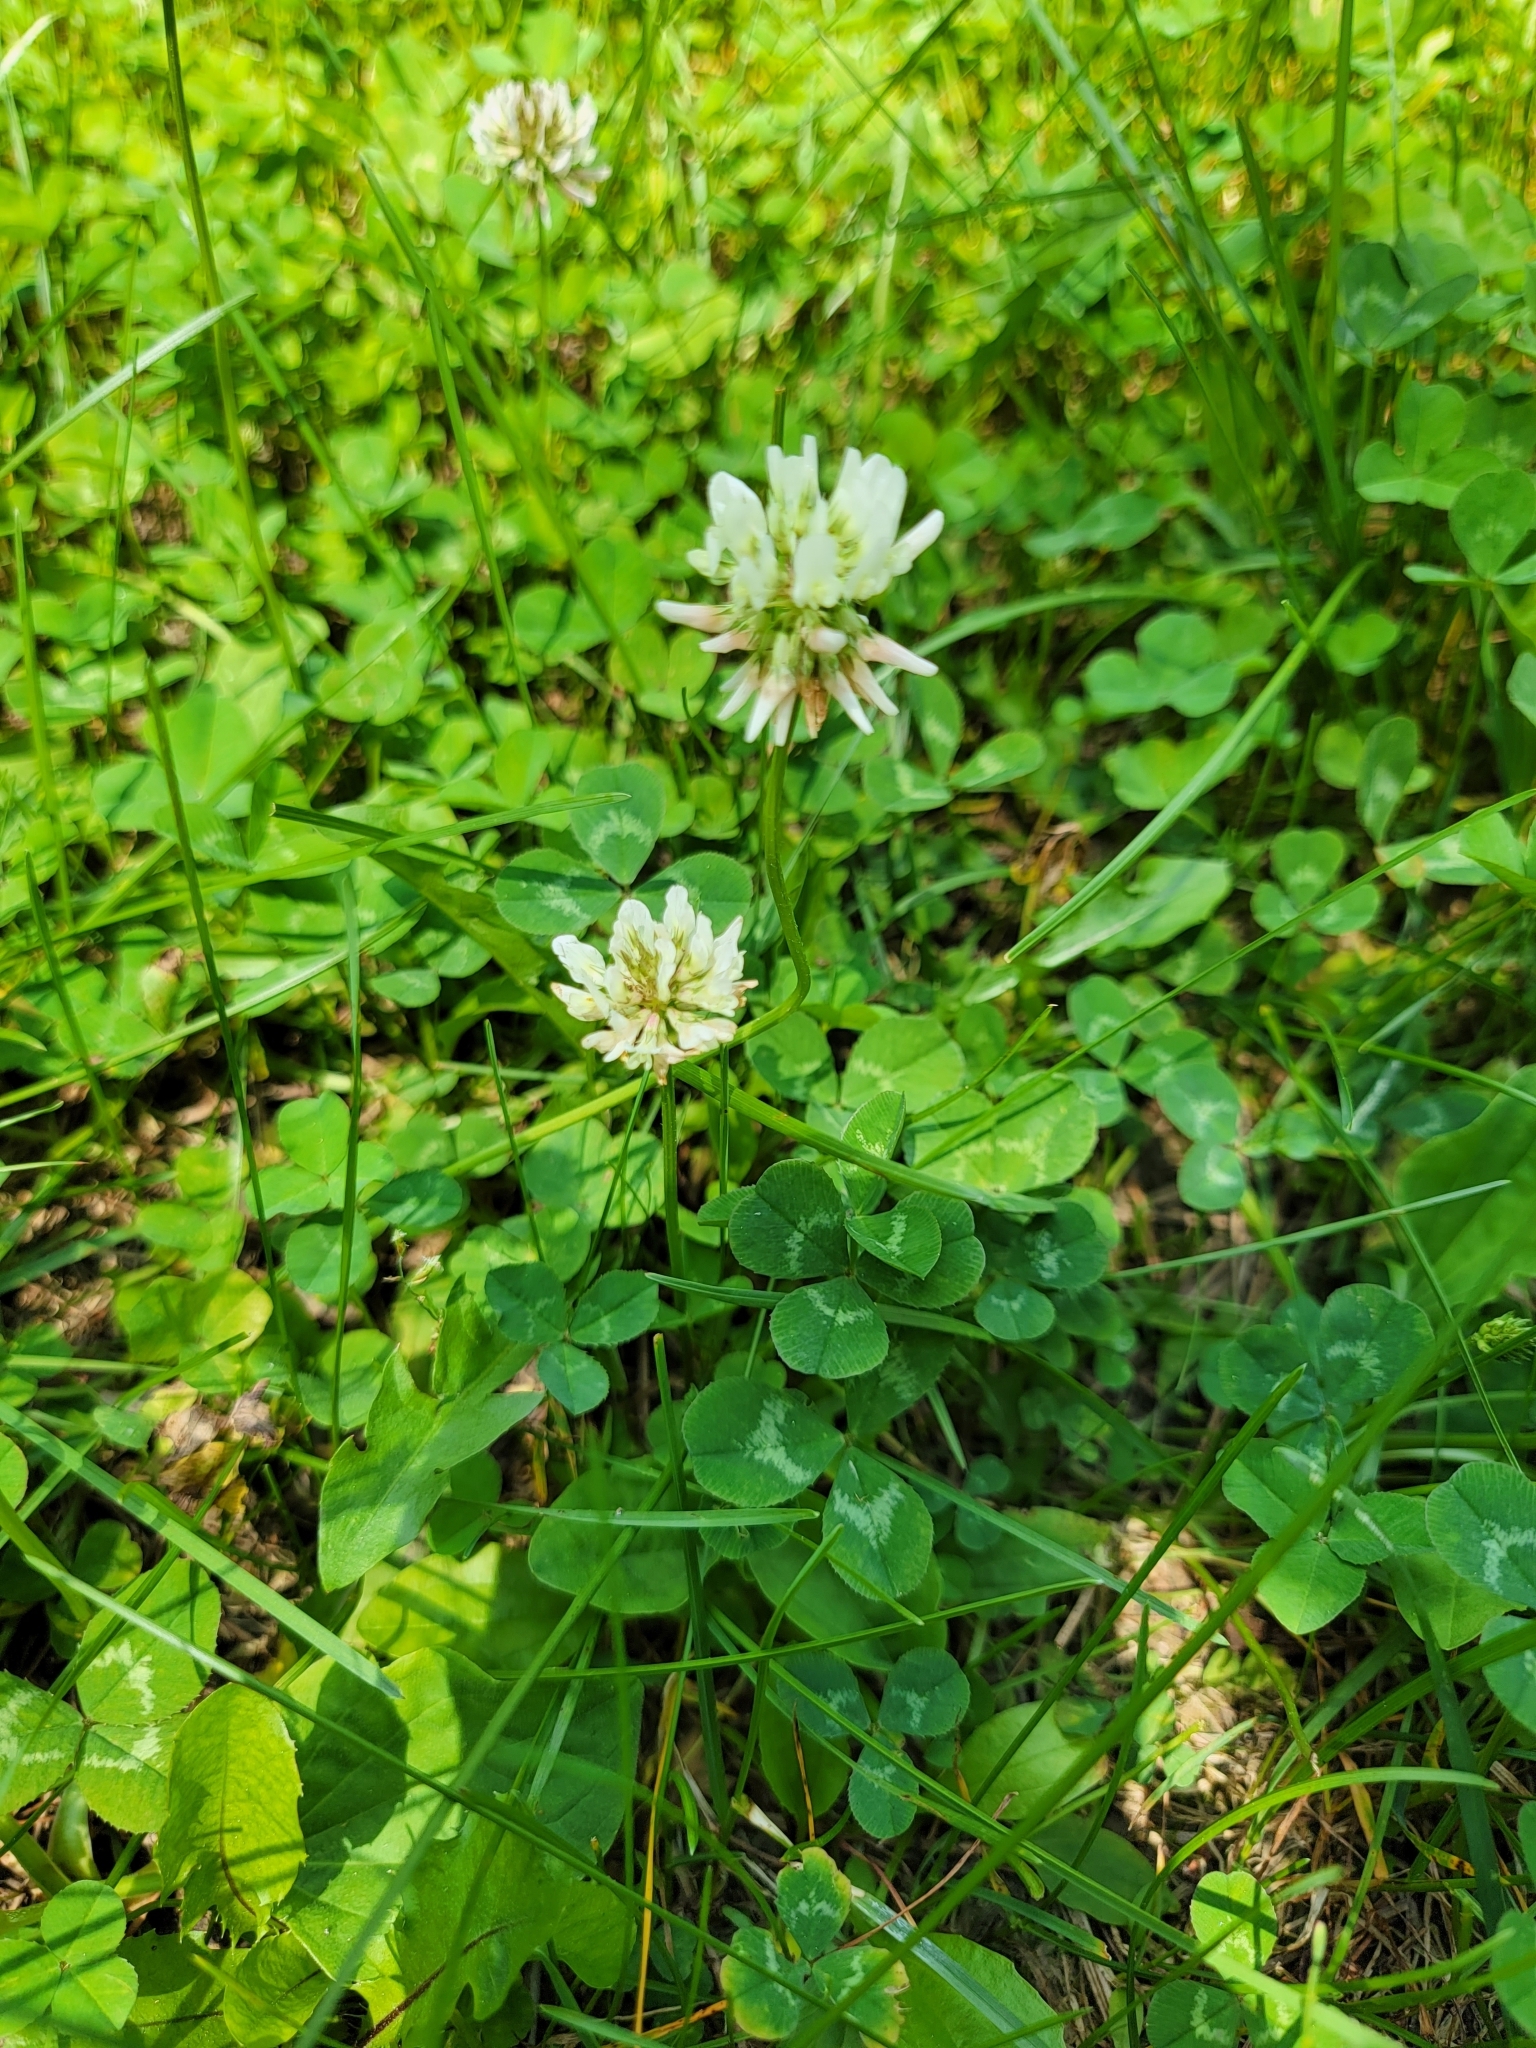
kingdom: Plantae
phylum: Tracheophyta
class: Magnoliopsida
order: Fabales
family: Fabaceae
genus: Trifolium
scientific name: Trifolium repens
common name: White clover
